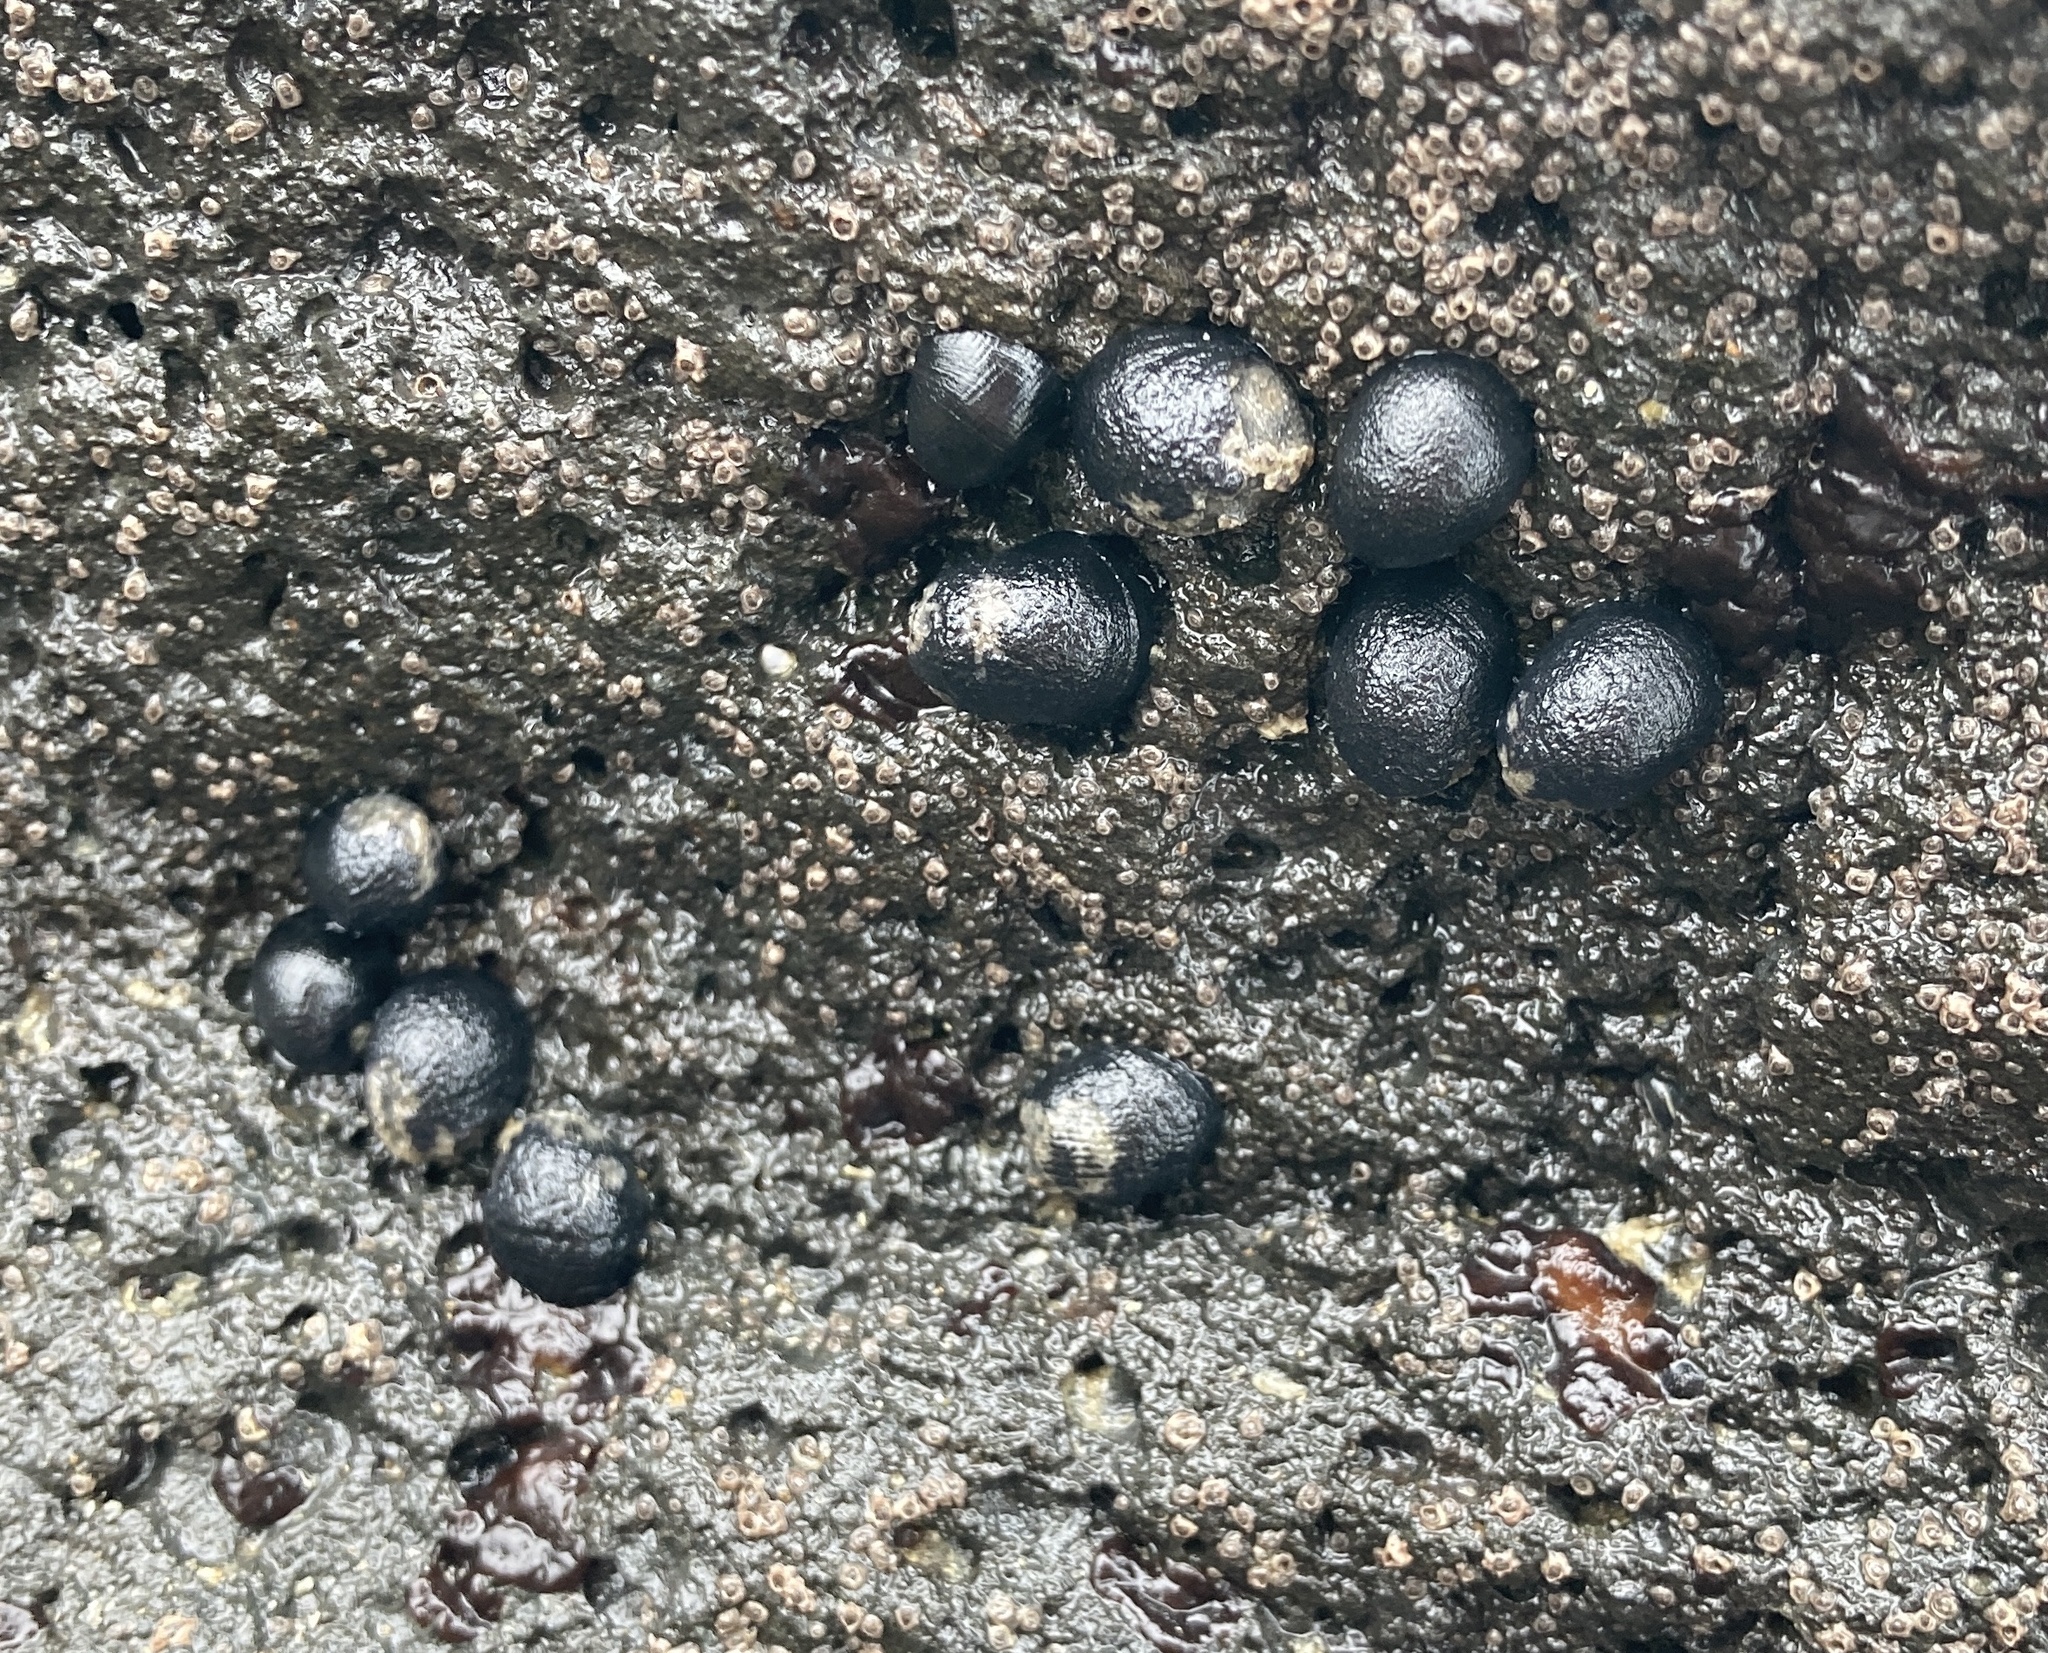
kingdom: Animalia
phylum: Mollusca
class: Gastropoda
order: Cycloneritida
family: Neritidae
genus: Nerita
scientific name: Nerita melanotragus
